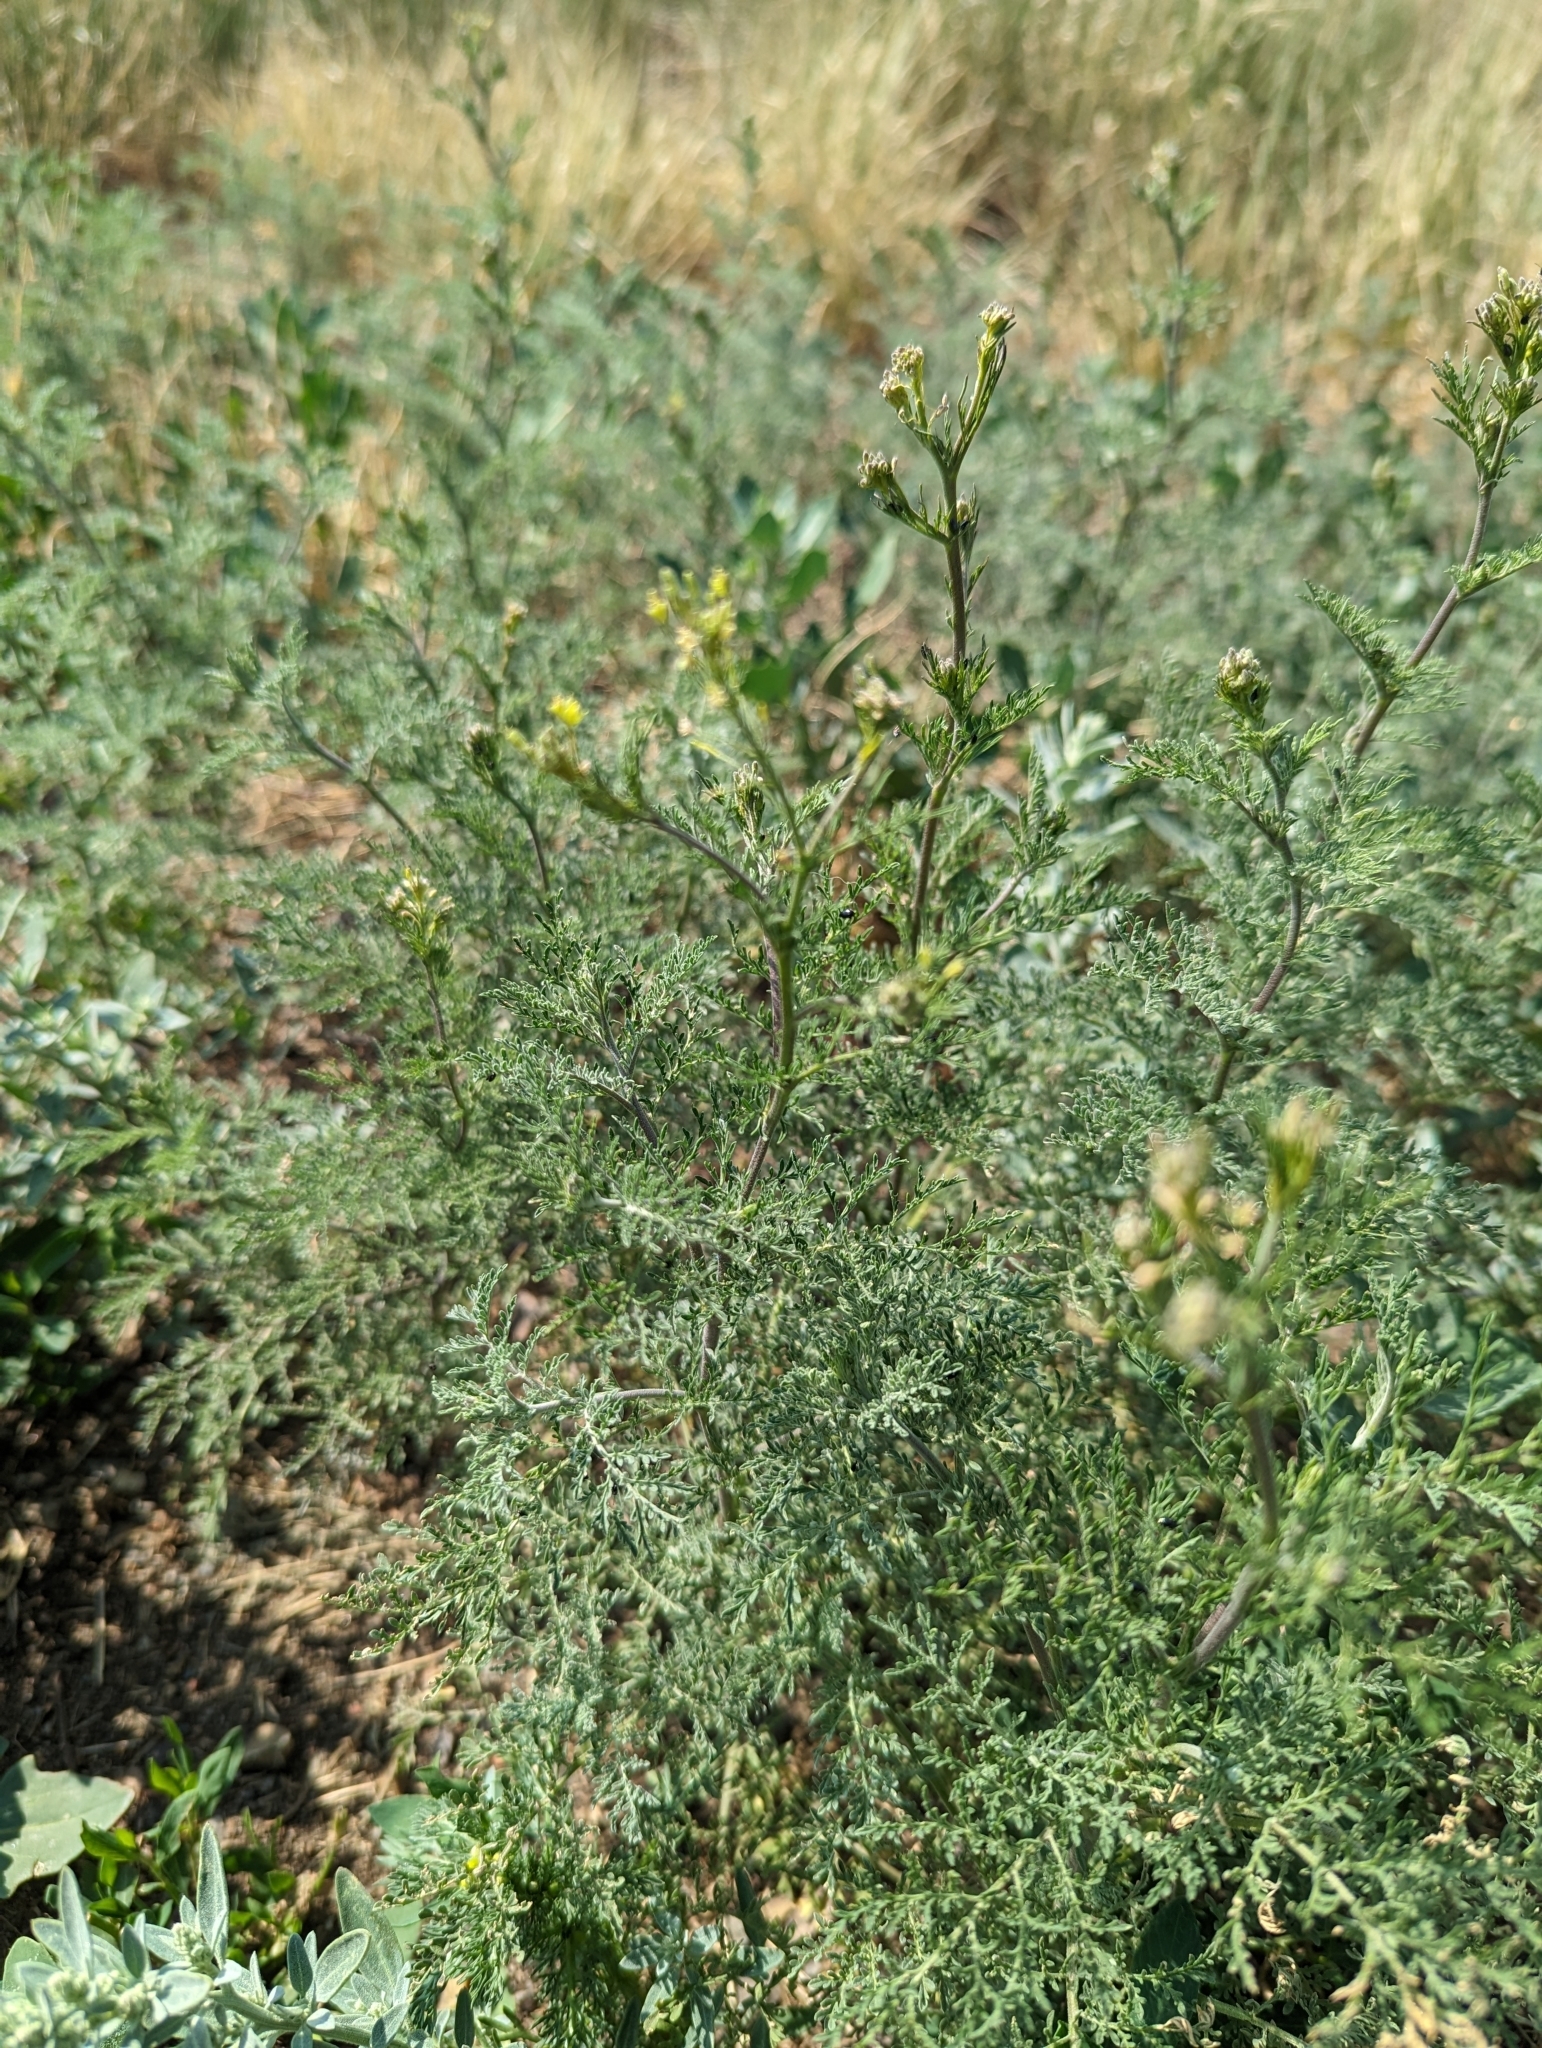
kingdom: Plantae
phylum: Tracheophyta
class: Magnoliopsida
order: Brassicales
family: Brassicaceae
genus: Descurainia
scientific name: Descurainia sophia
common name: Flixweed
